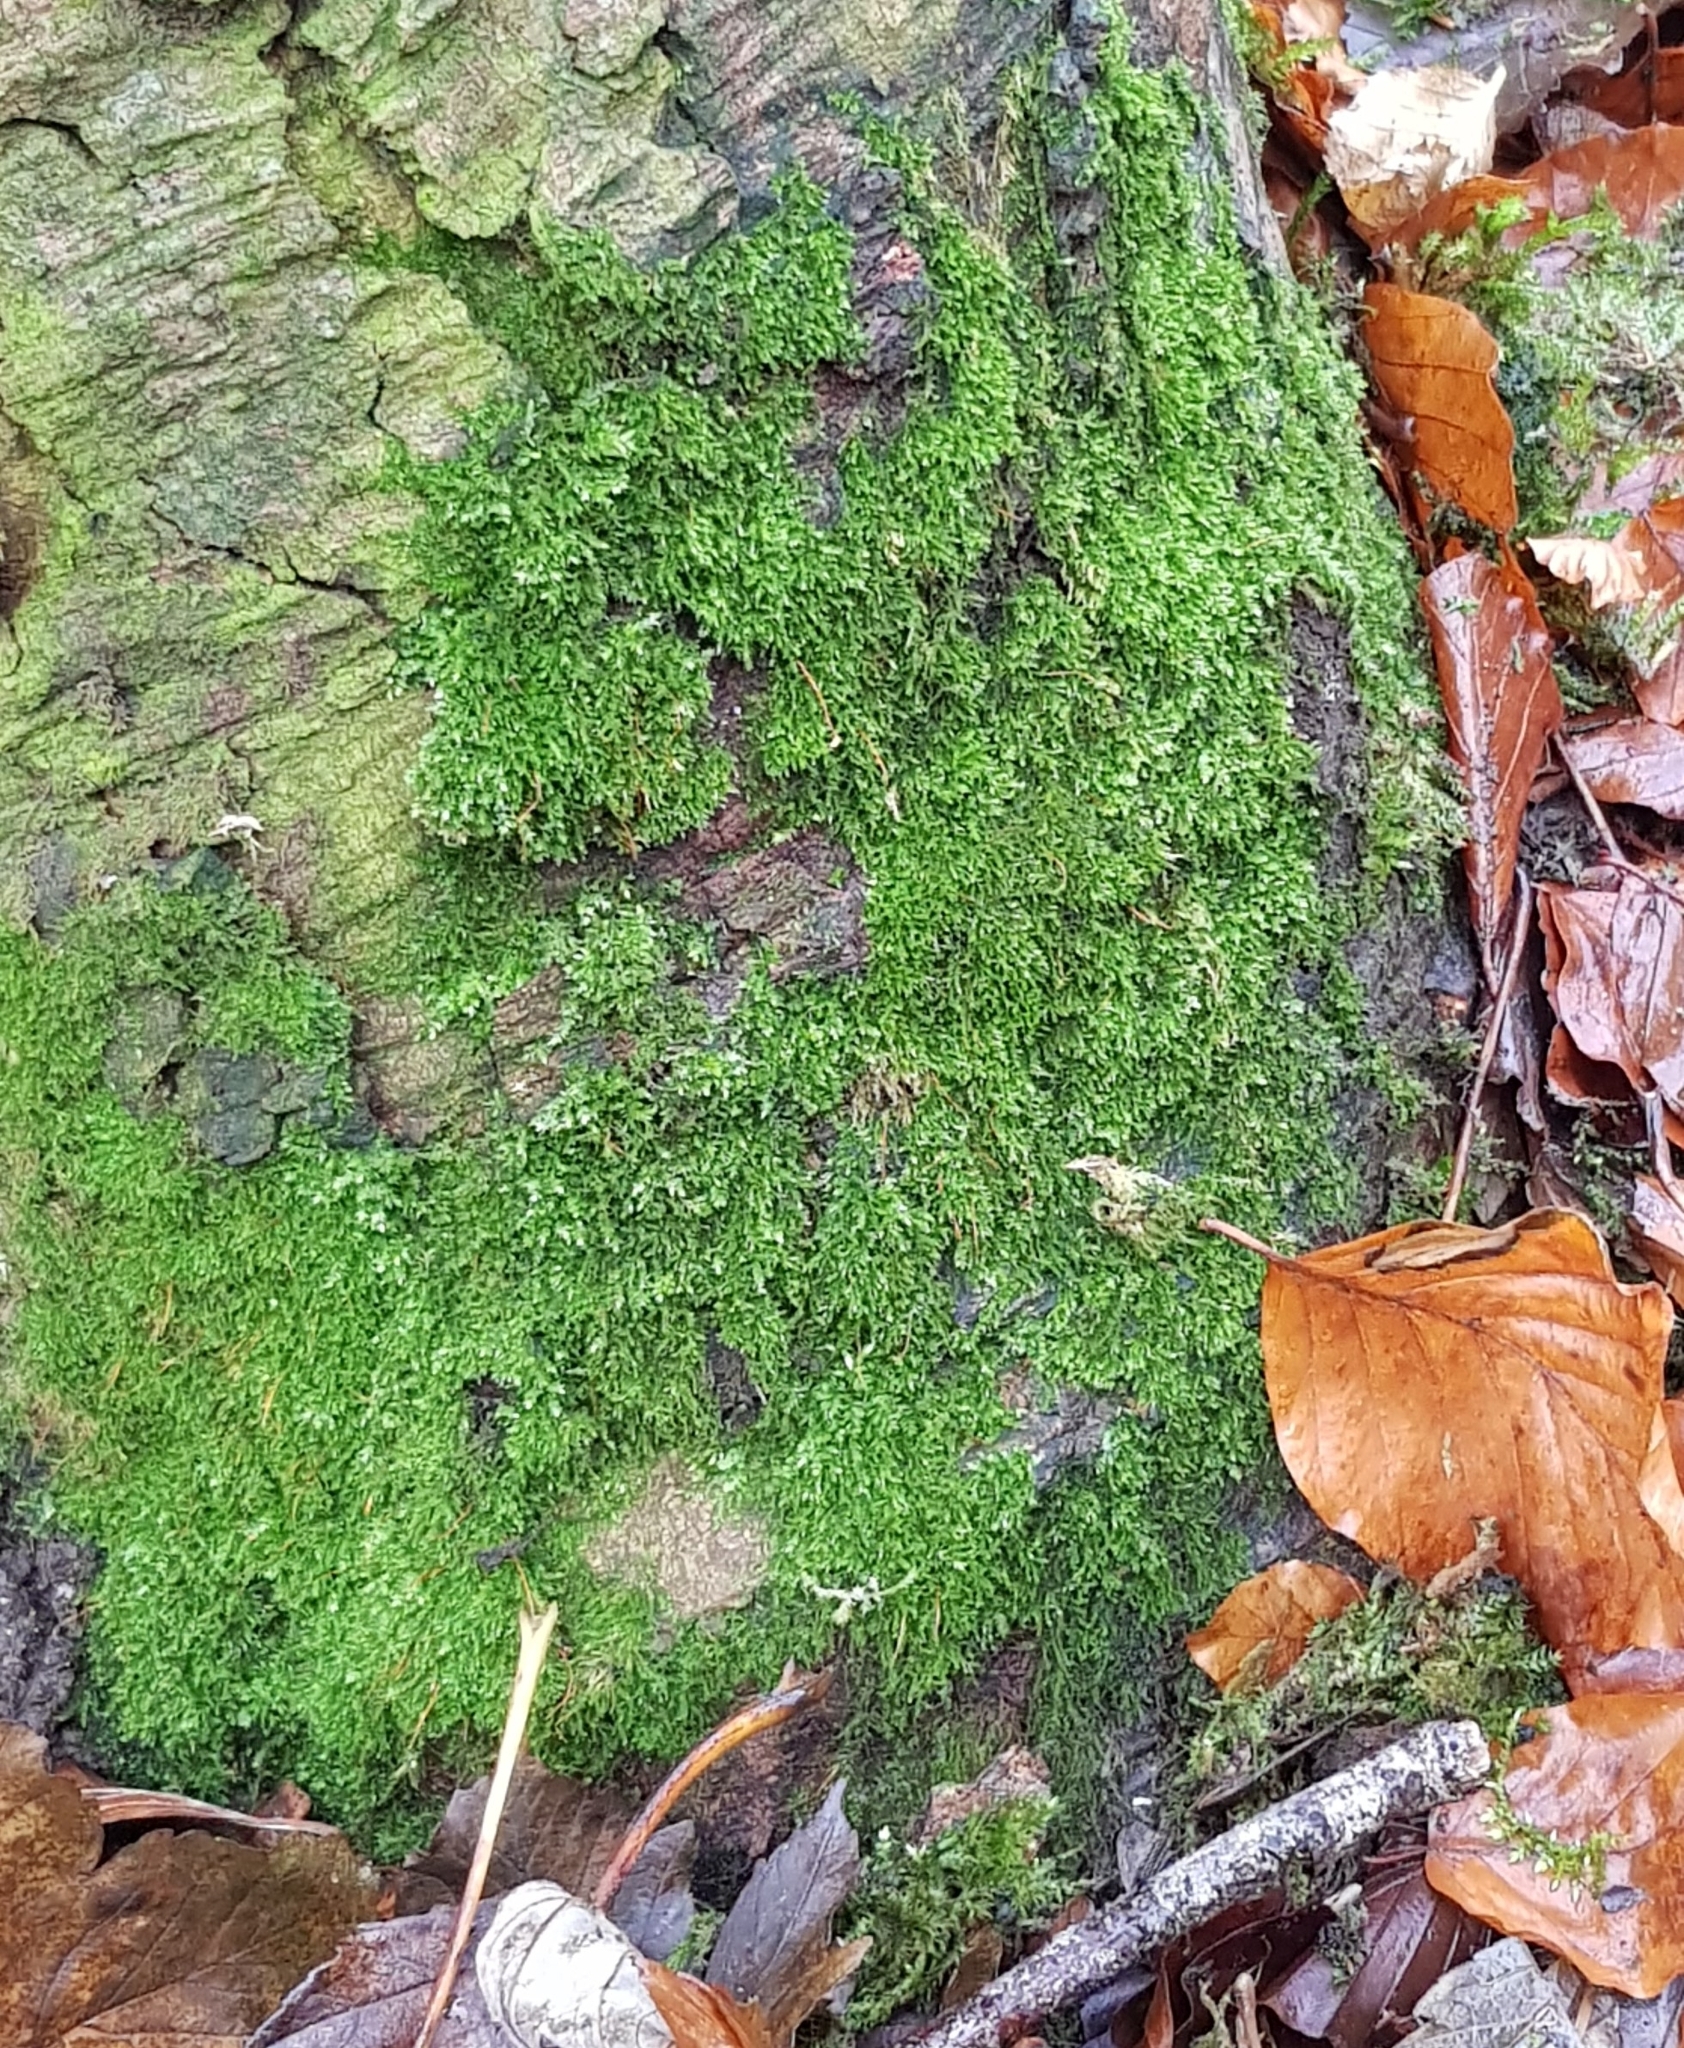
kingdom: Plantae
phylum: Bryophyta
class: Bryopsida
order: Hypnales
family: Amblystegiaceae
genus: Amblystegium
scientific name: Amblystegium serpens
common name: Jurkatzka's feather moss
